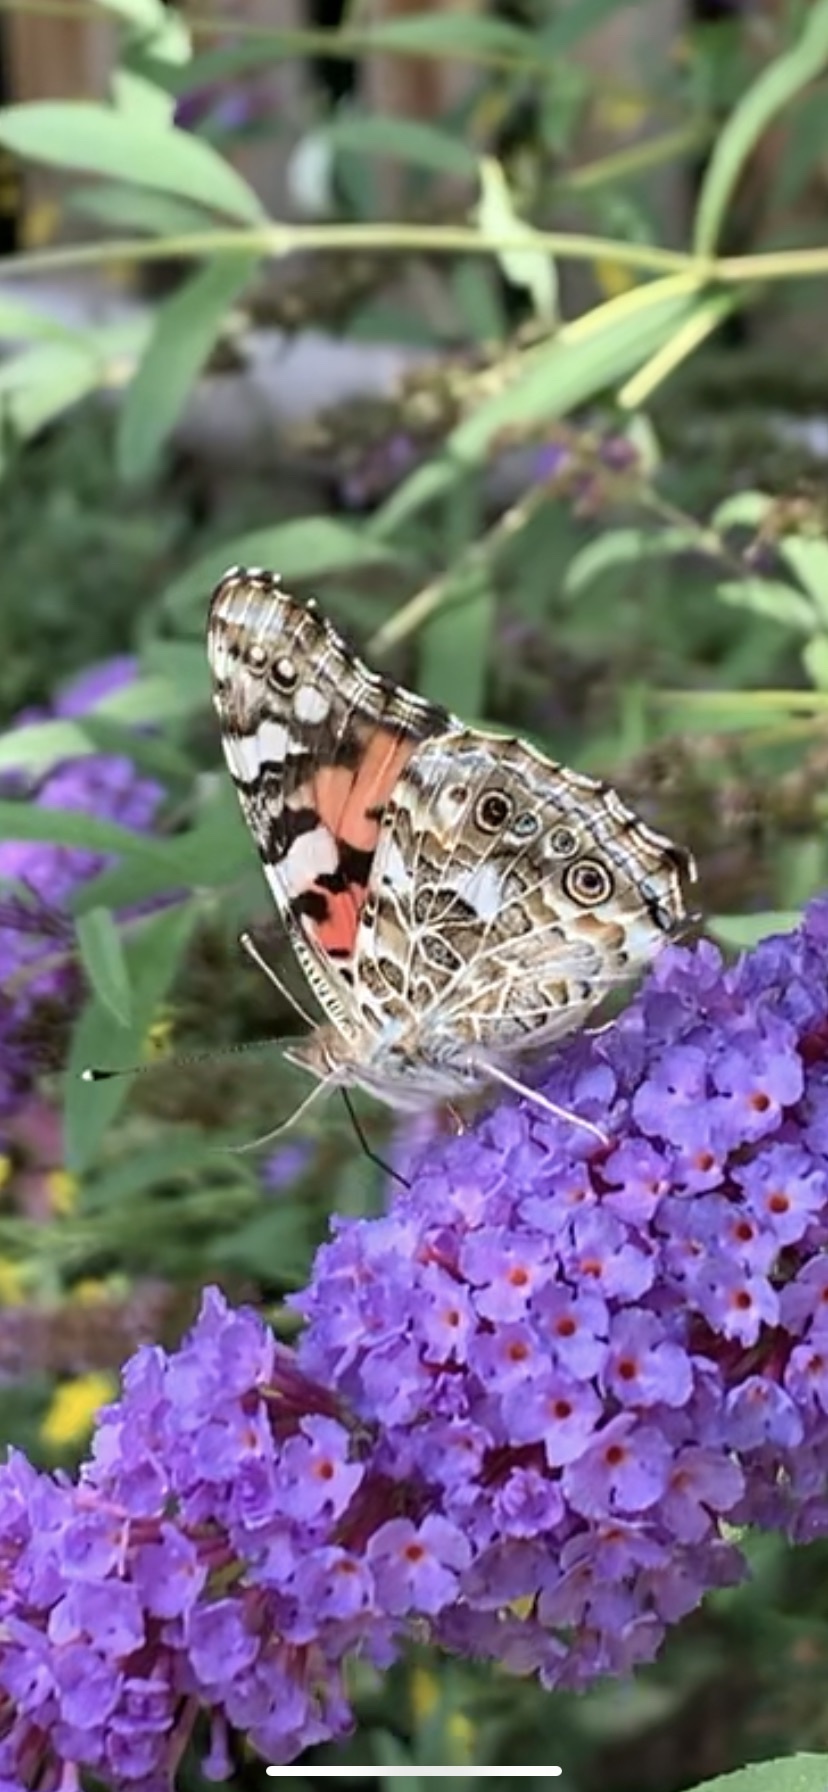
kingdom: Animalia
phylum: Arthropoda
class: Insecta
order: Lepidoptera
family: Nymphalidae
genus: Vanessa
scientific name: Vanessa cardui
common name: Painted lady
